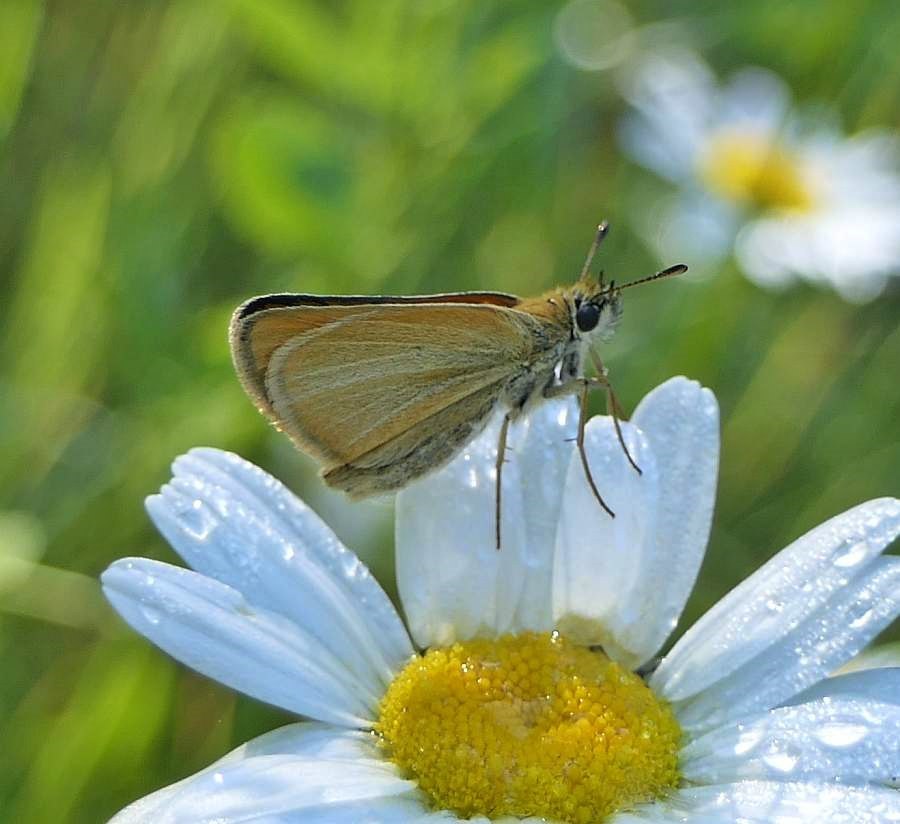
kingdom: Animalia
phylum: Arthropoda
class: Insecta
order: Lepidoptera
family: Hesperiidae
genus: Thymelicus
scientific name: Thymelicus lineola
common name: Essex skipper
